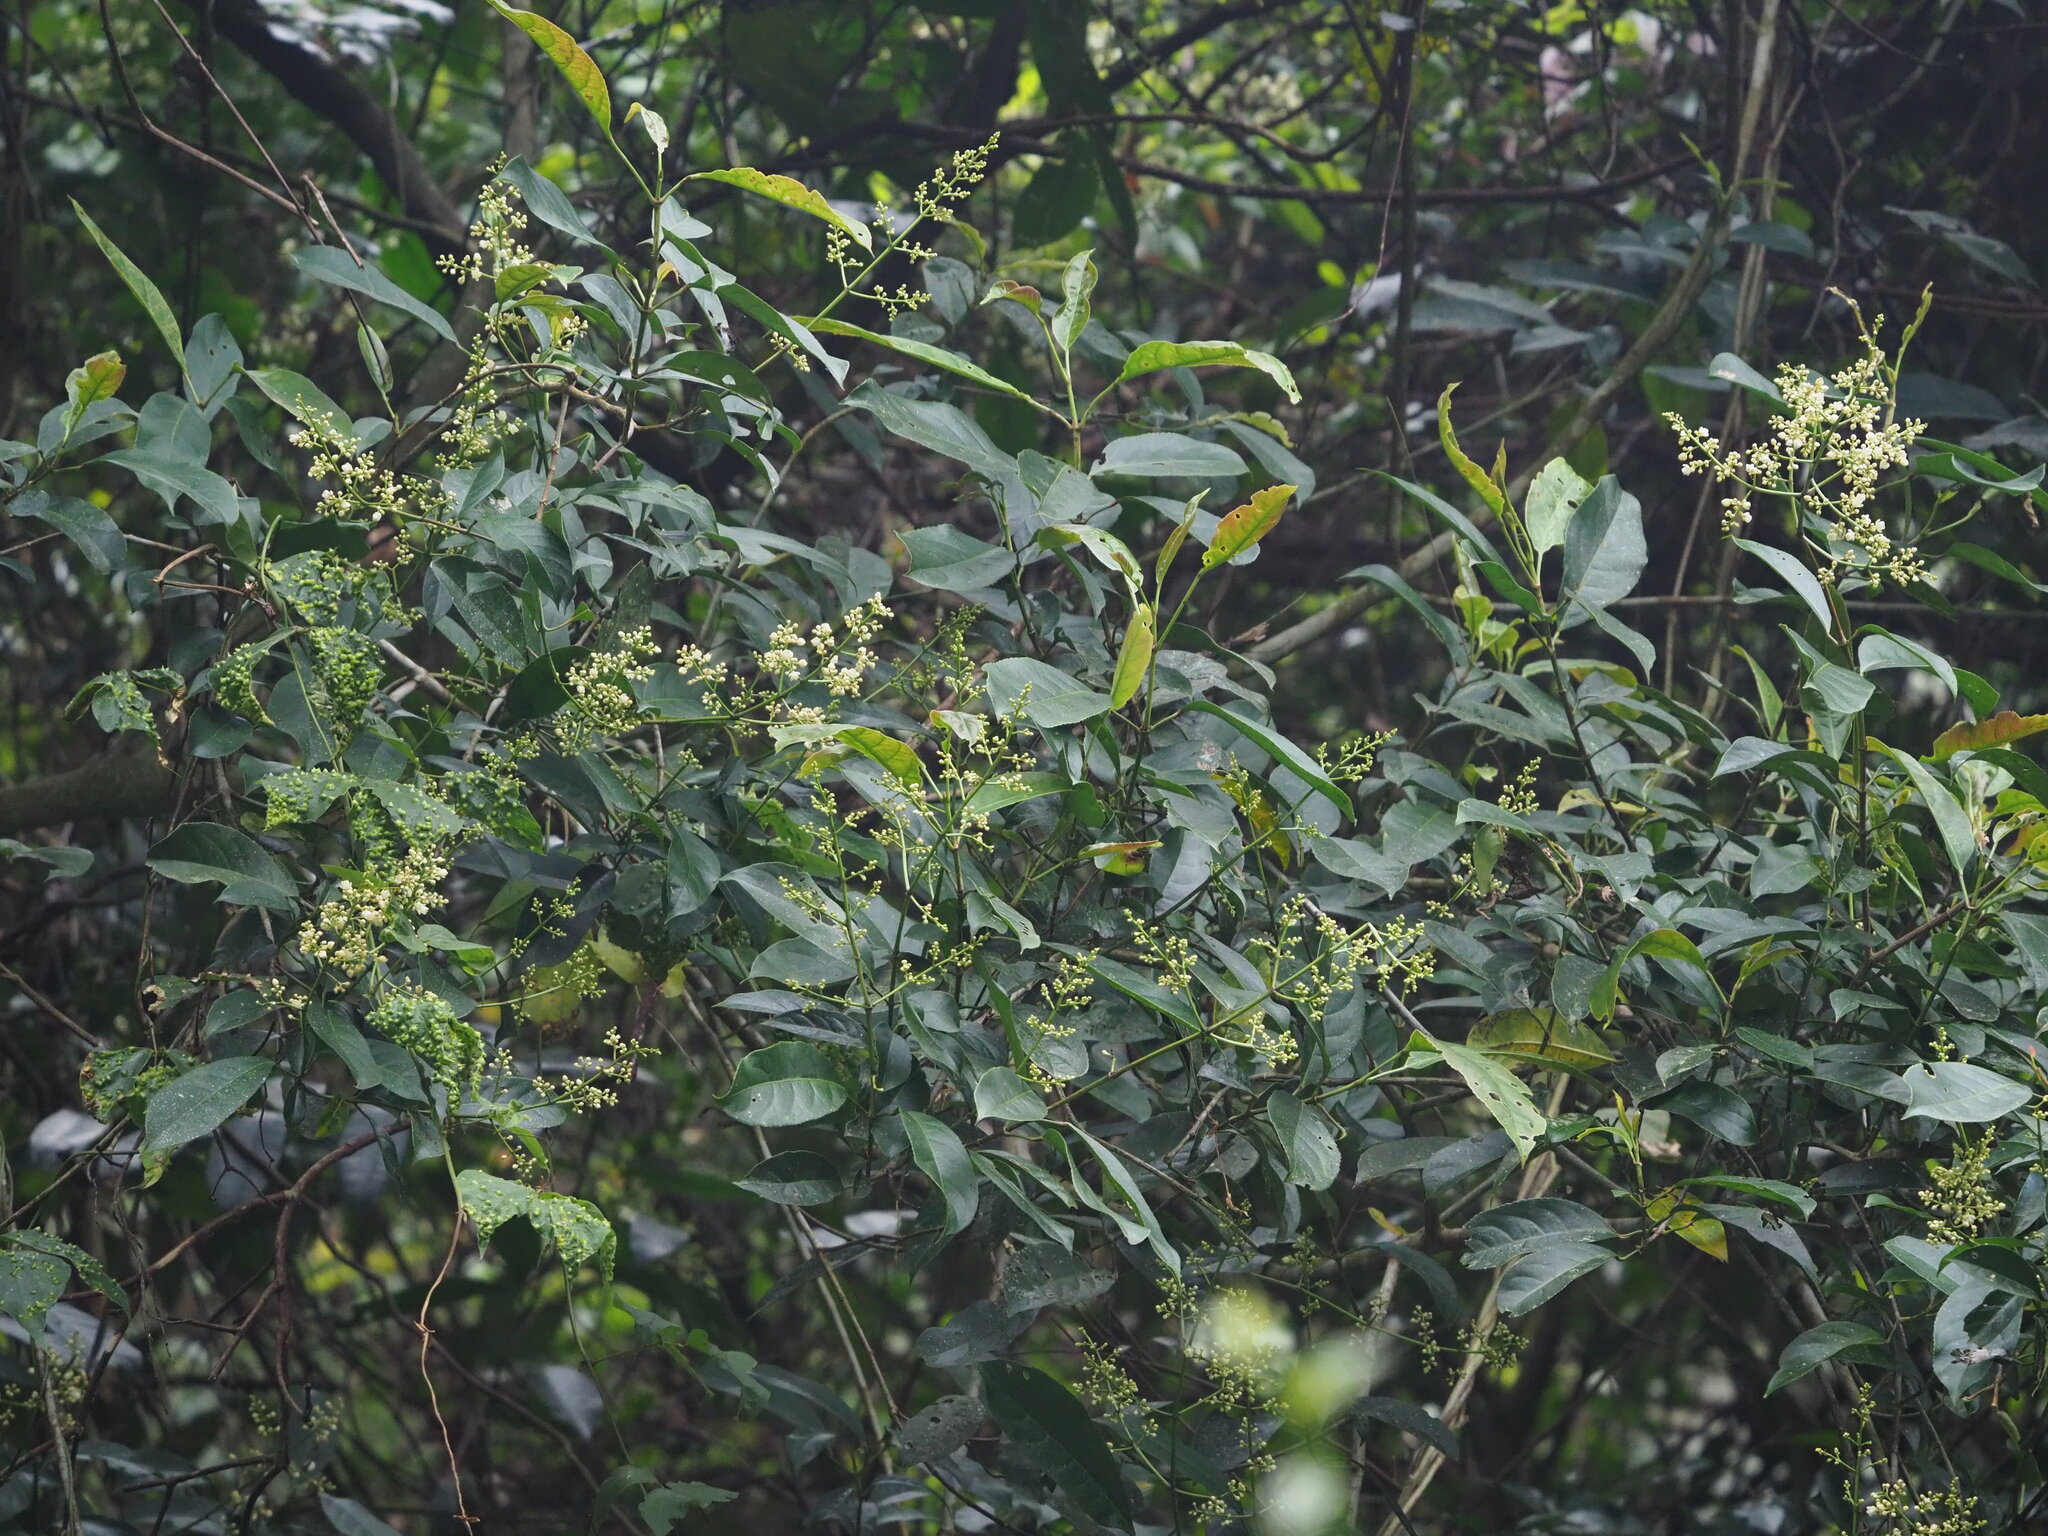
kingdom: Plantae
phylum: Tracheophyta
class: Magnoliopsida
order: Crossosomatales
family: Staphyleaceae
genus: Turpinia
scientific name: Turpinia formosana
